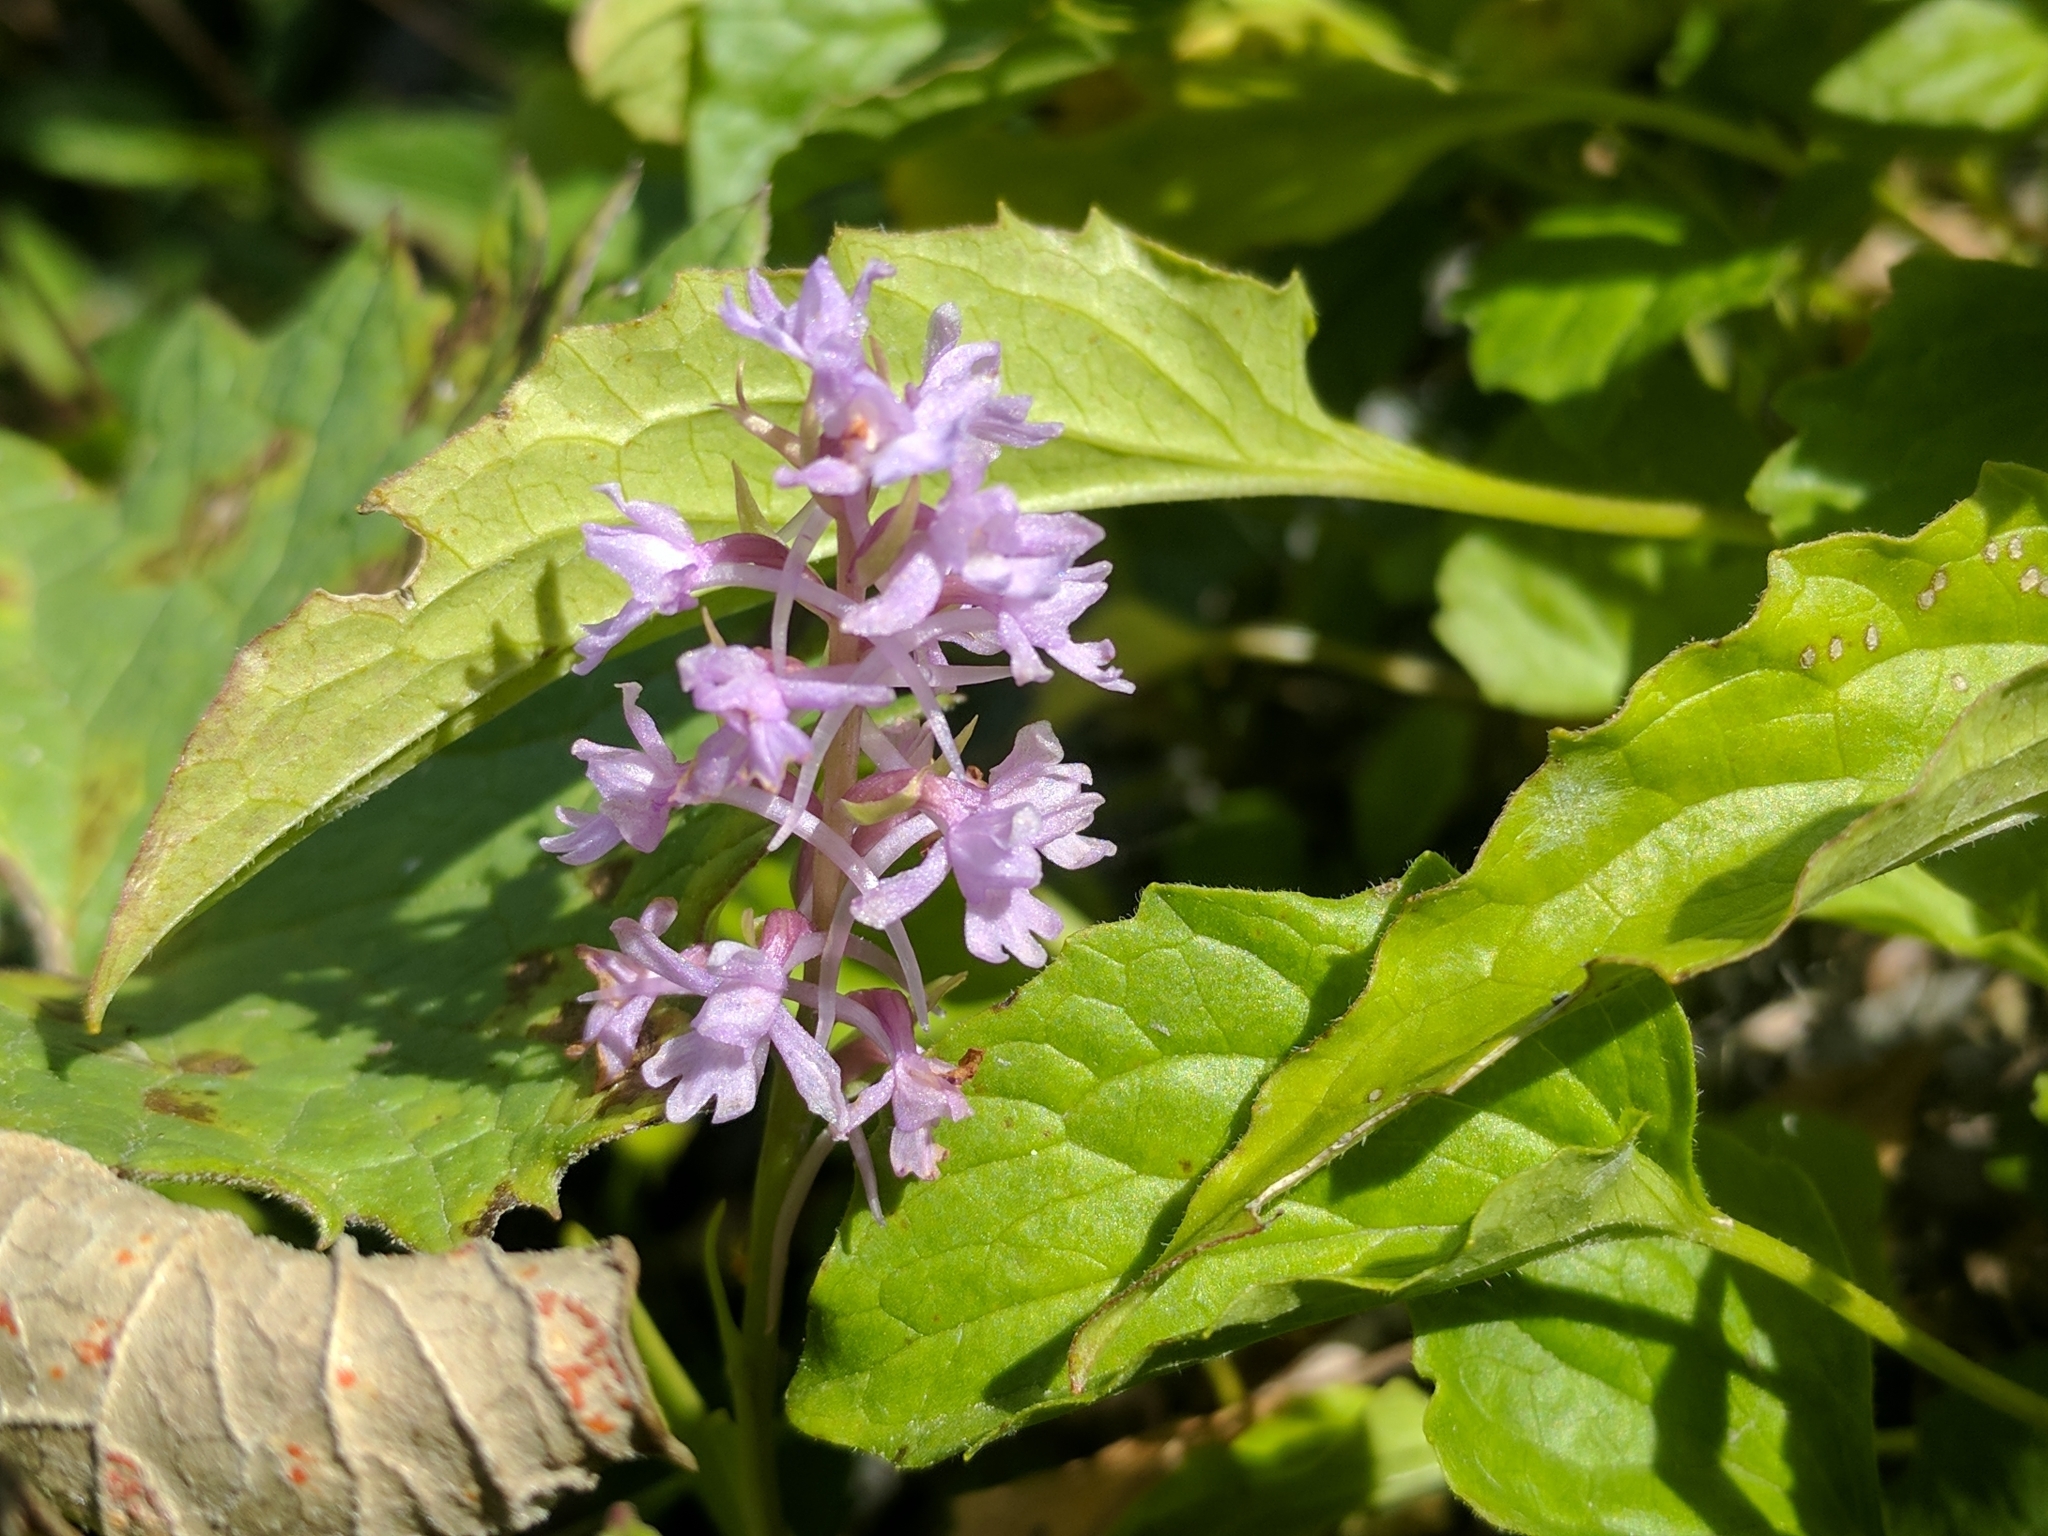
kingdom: Plantae
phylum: Tracheophyta
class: Liliopsida
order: Asparagales
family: Orchidaceae
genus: Gymnadenia
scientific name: Gymnadenia conopsea
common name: Fragrant orchid
